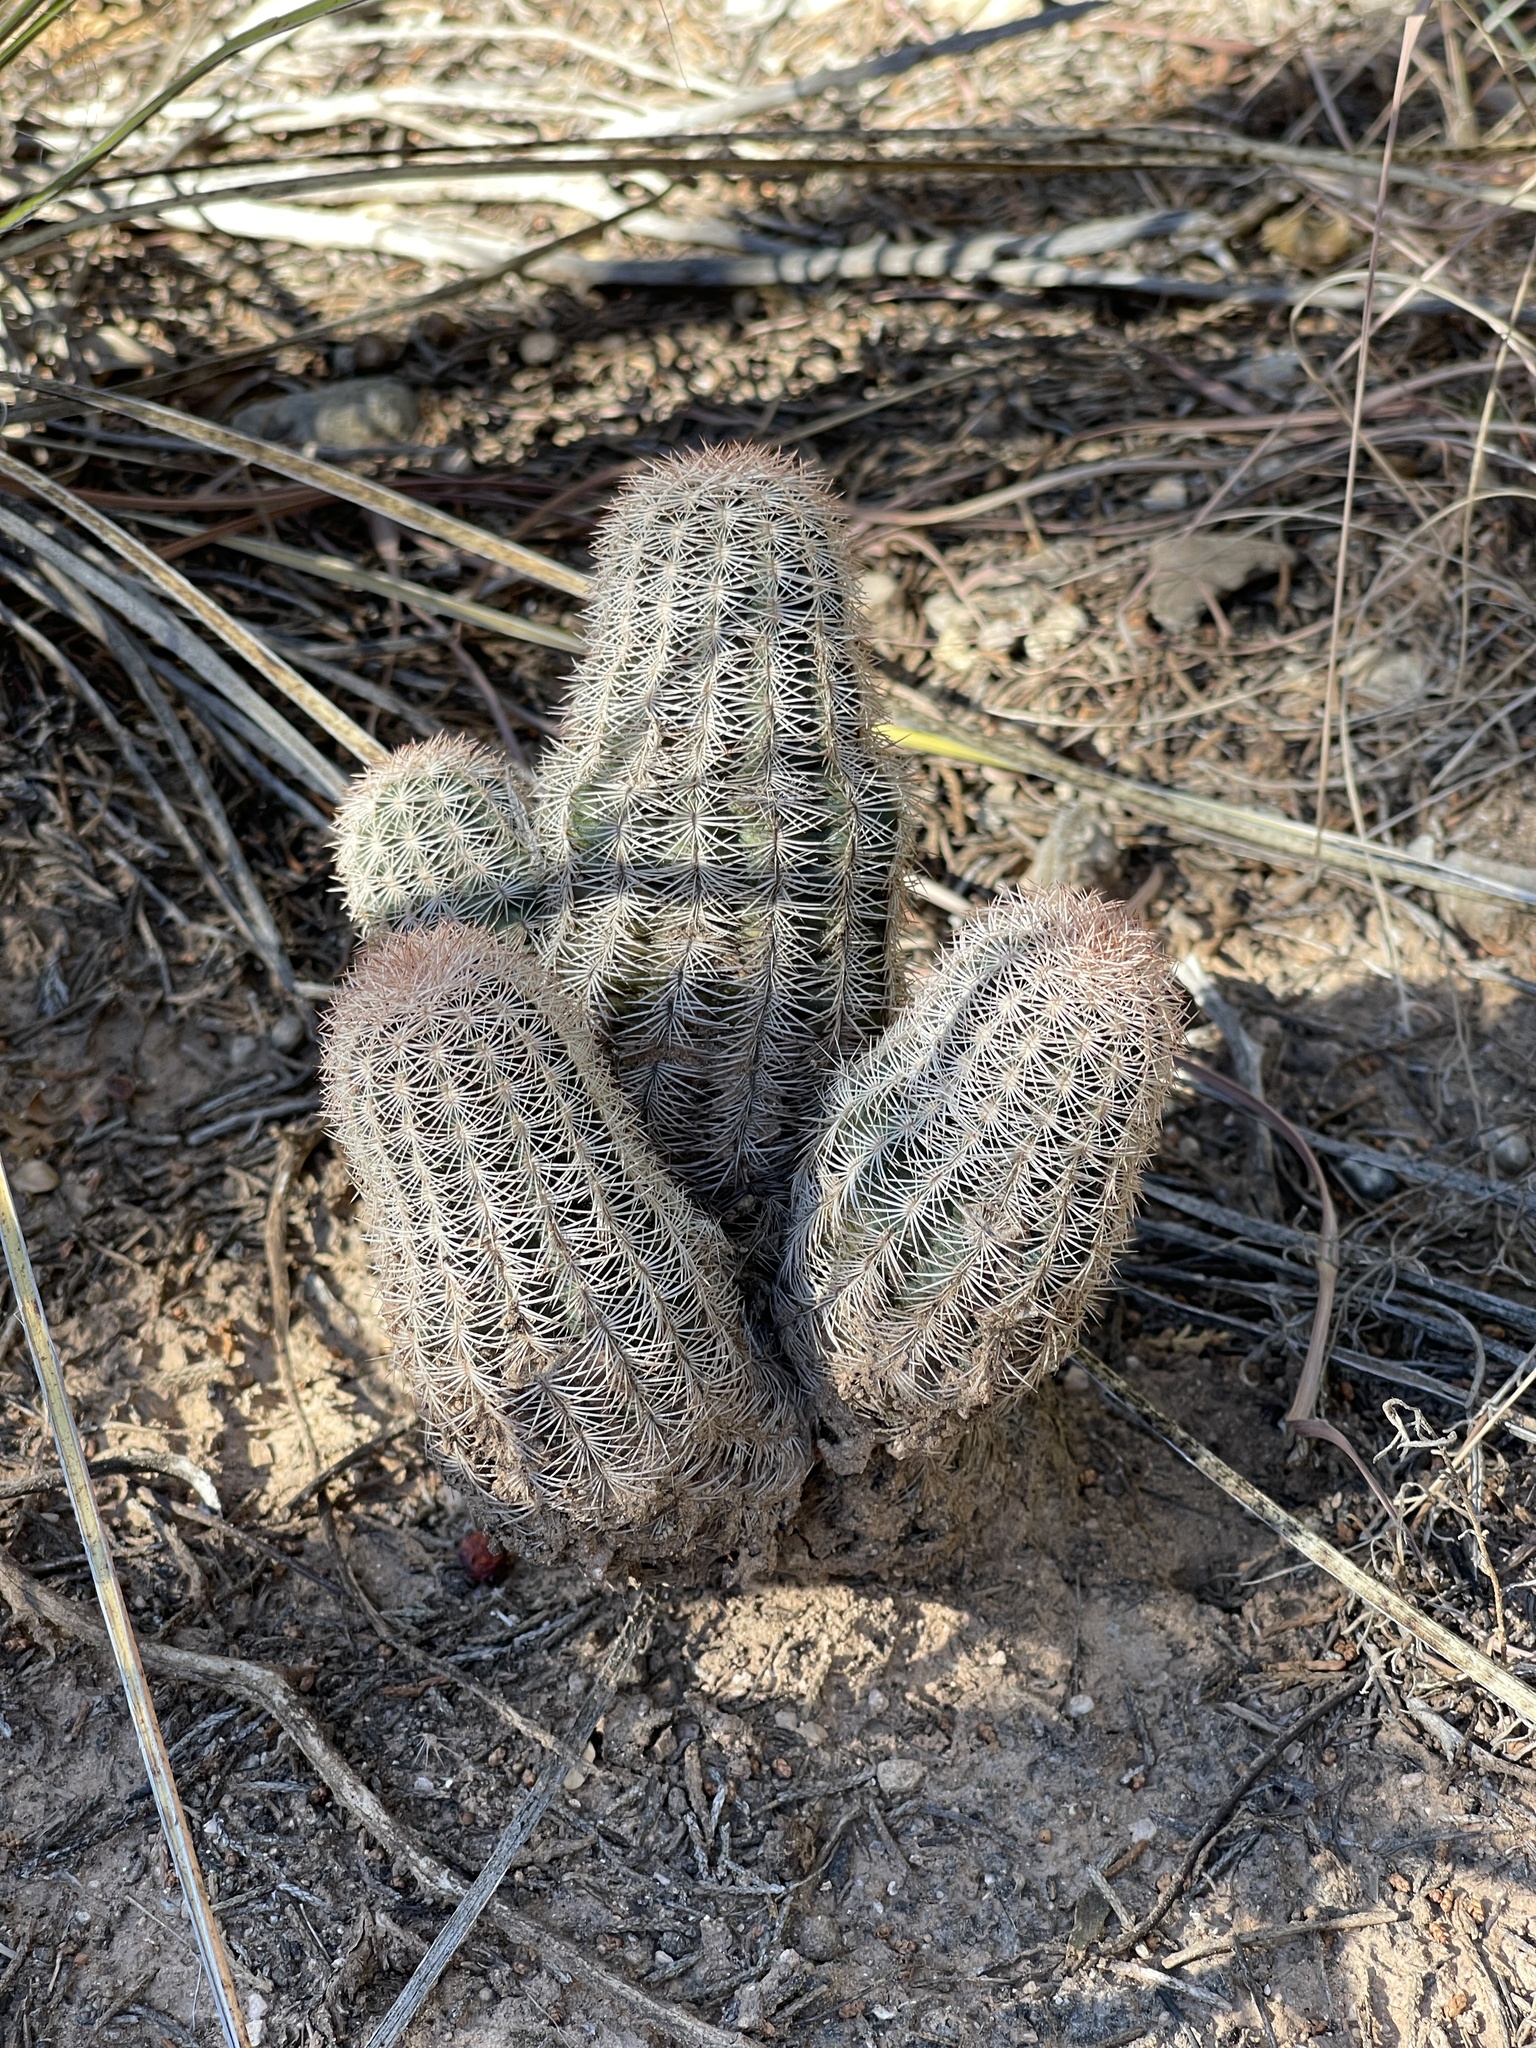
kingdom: Plantae
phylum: Tracheophyta
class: Magnoliopsida
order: Caryophyllales
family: Cactaceae
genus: Echinocereus
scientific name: Echinocereus reichenbachii
